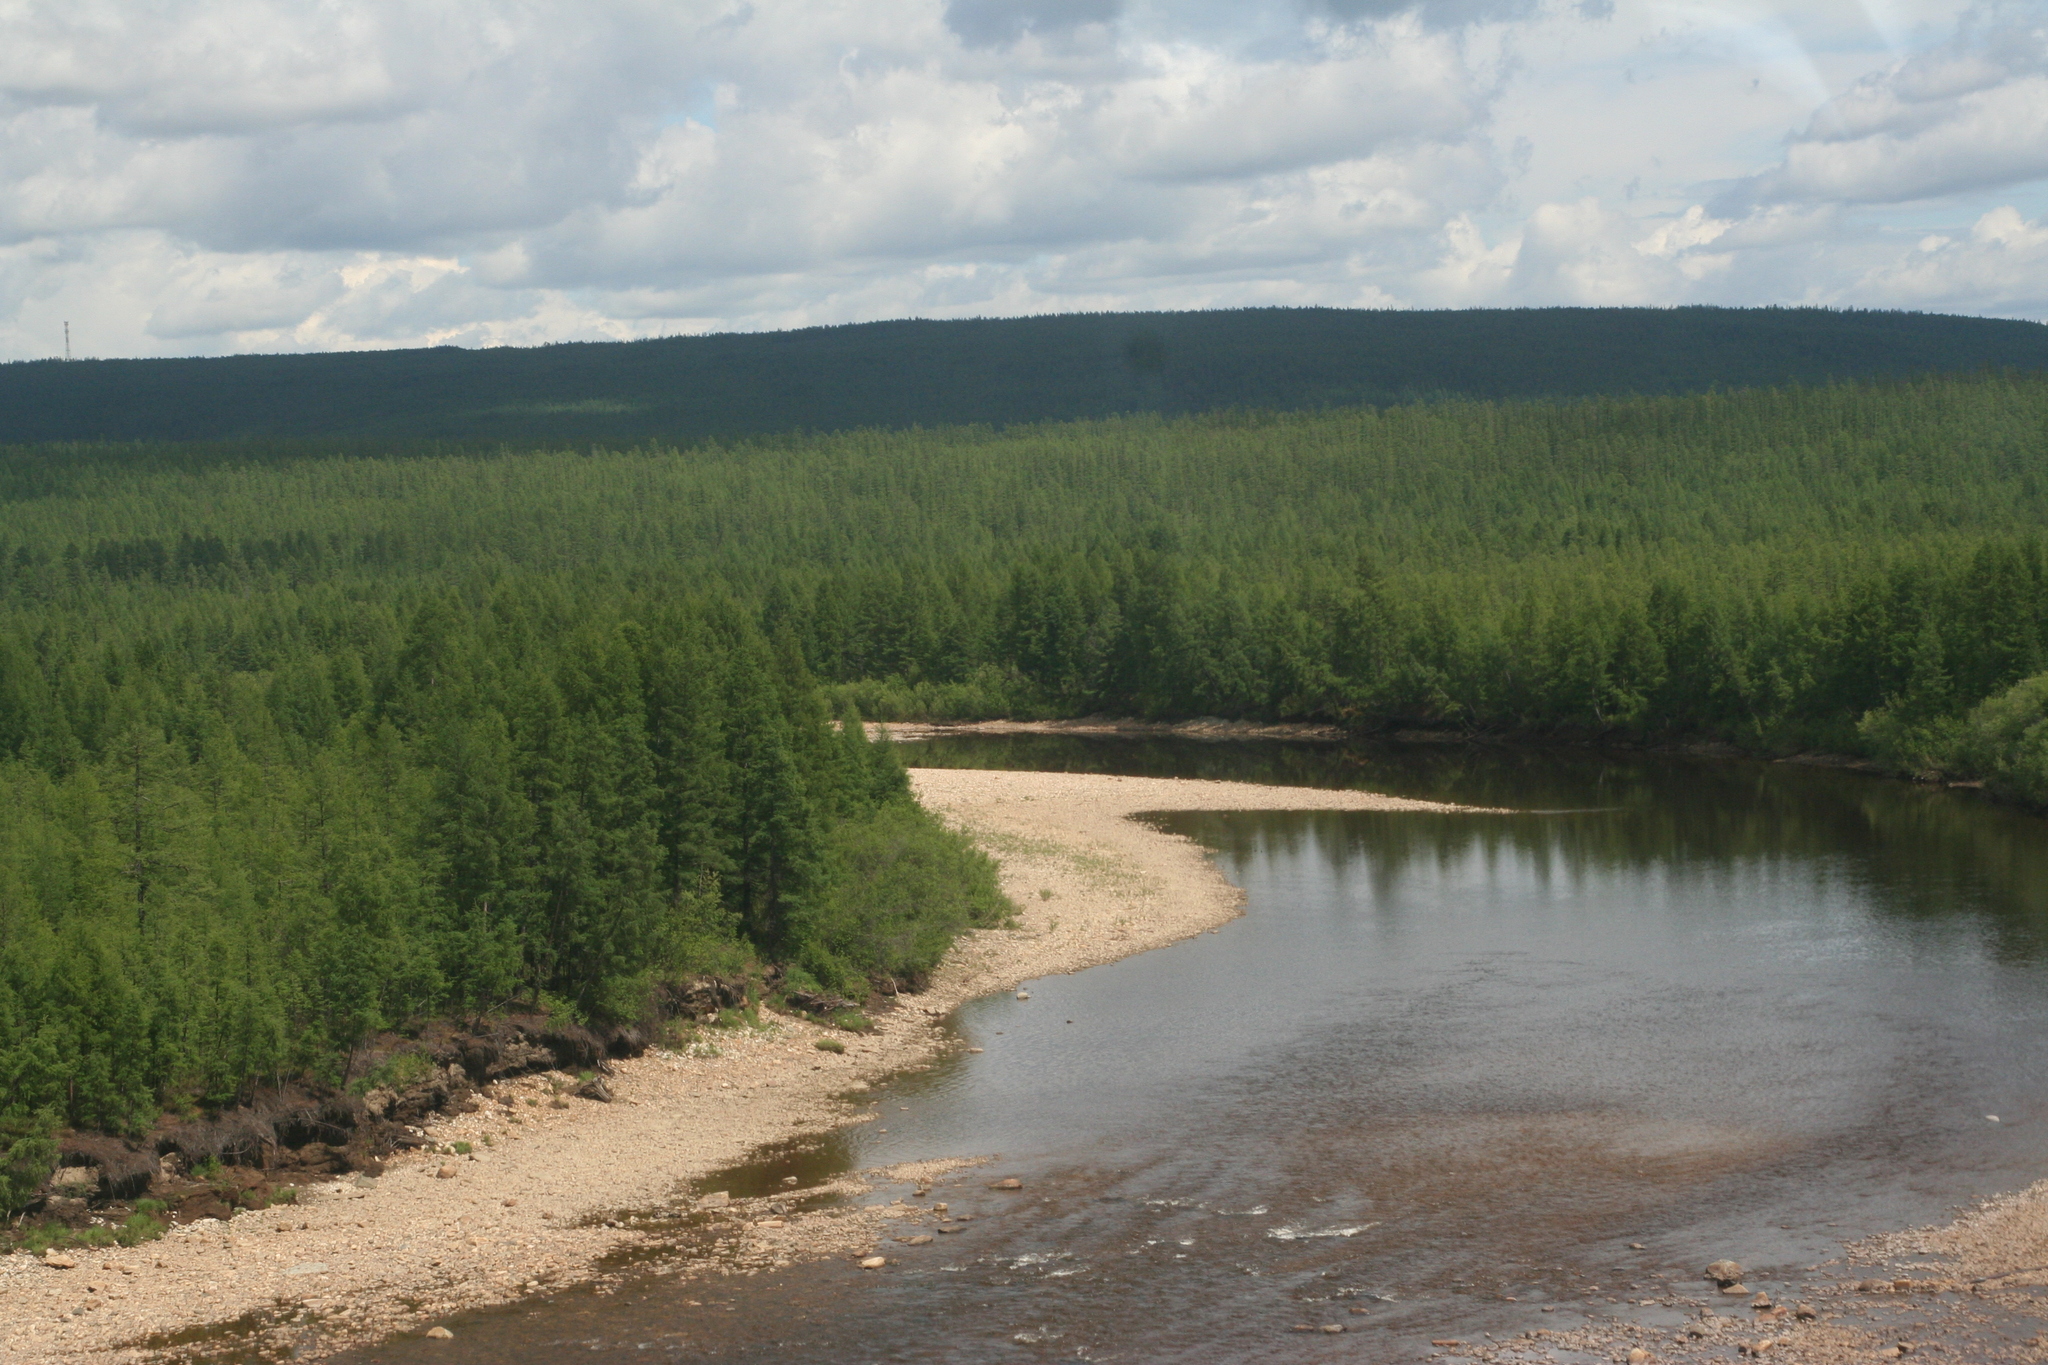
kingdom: Plantae
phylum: Tracheophyta
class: Pinopsida
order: Pinales
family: Pinaceae
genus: Larix
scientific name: Larix gmelinii
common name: Dahurian larch
